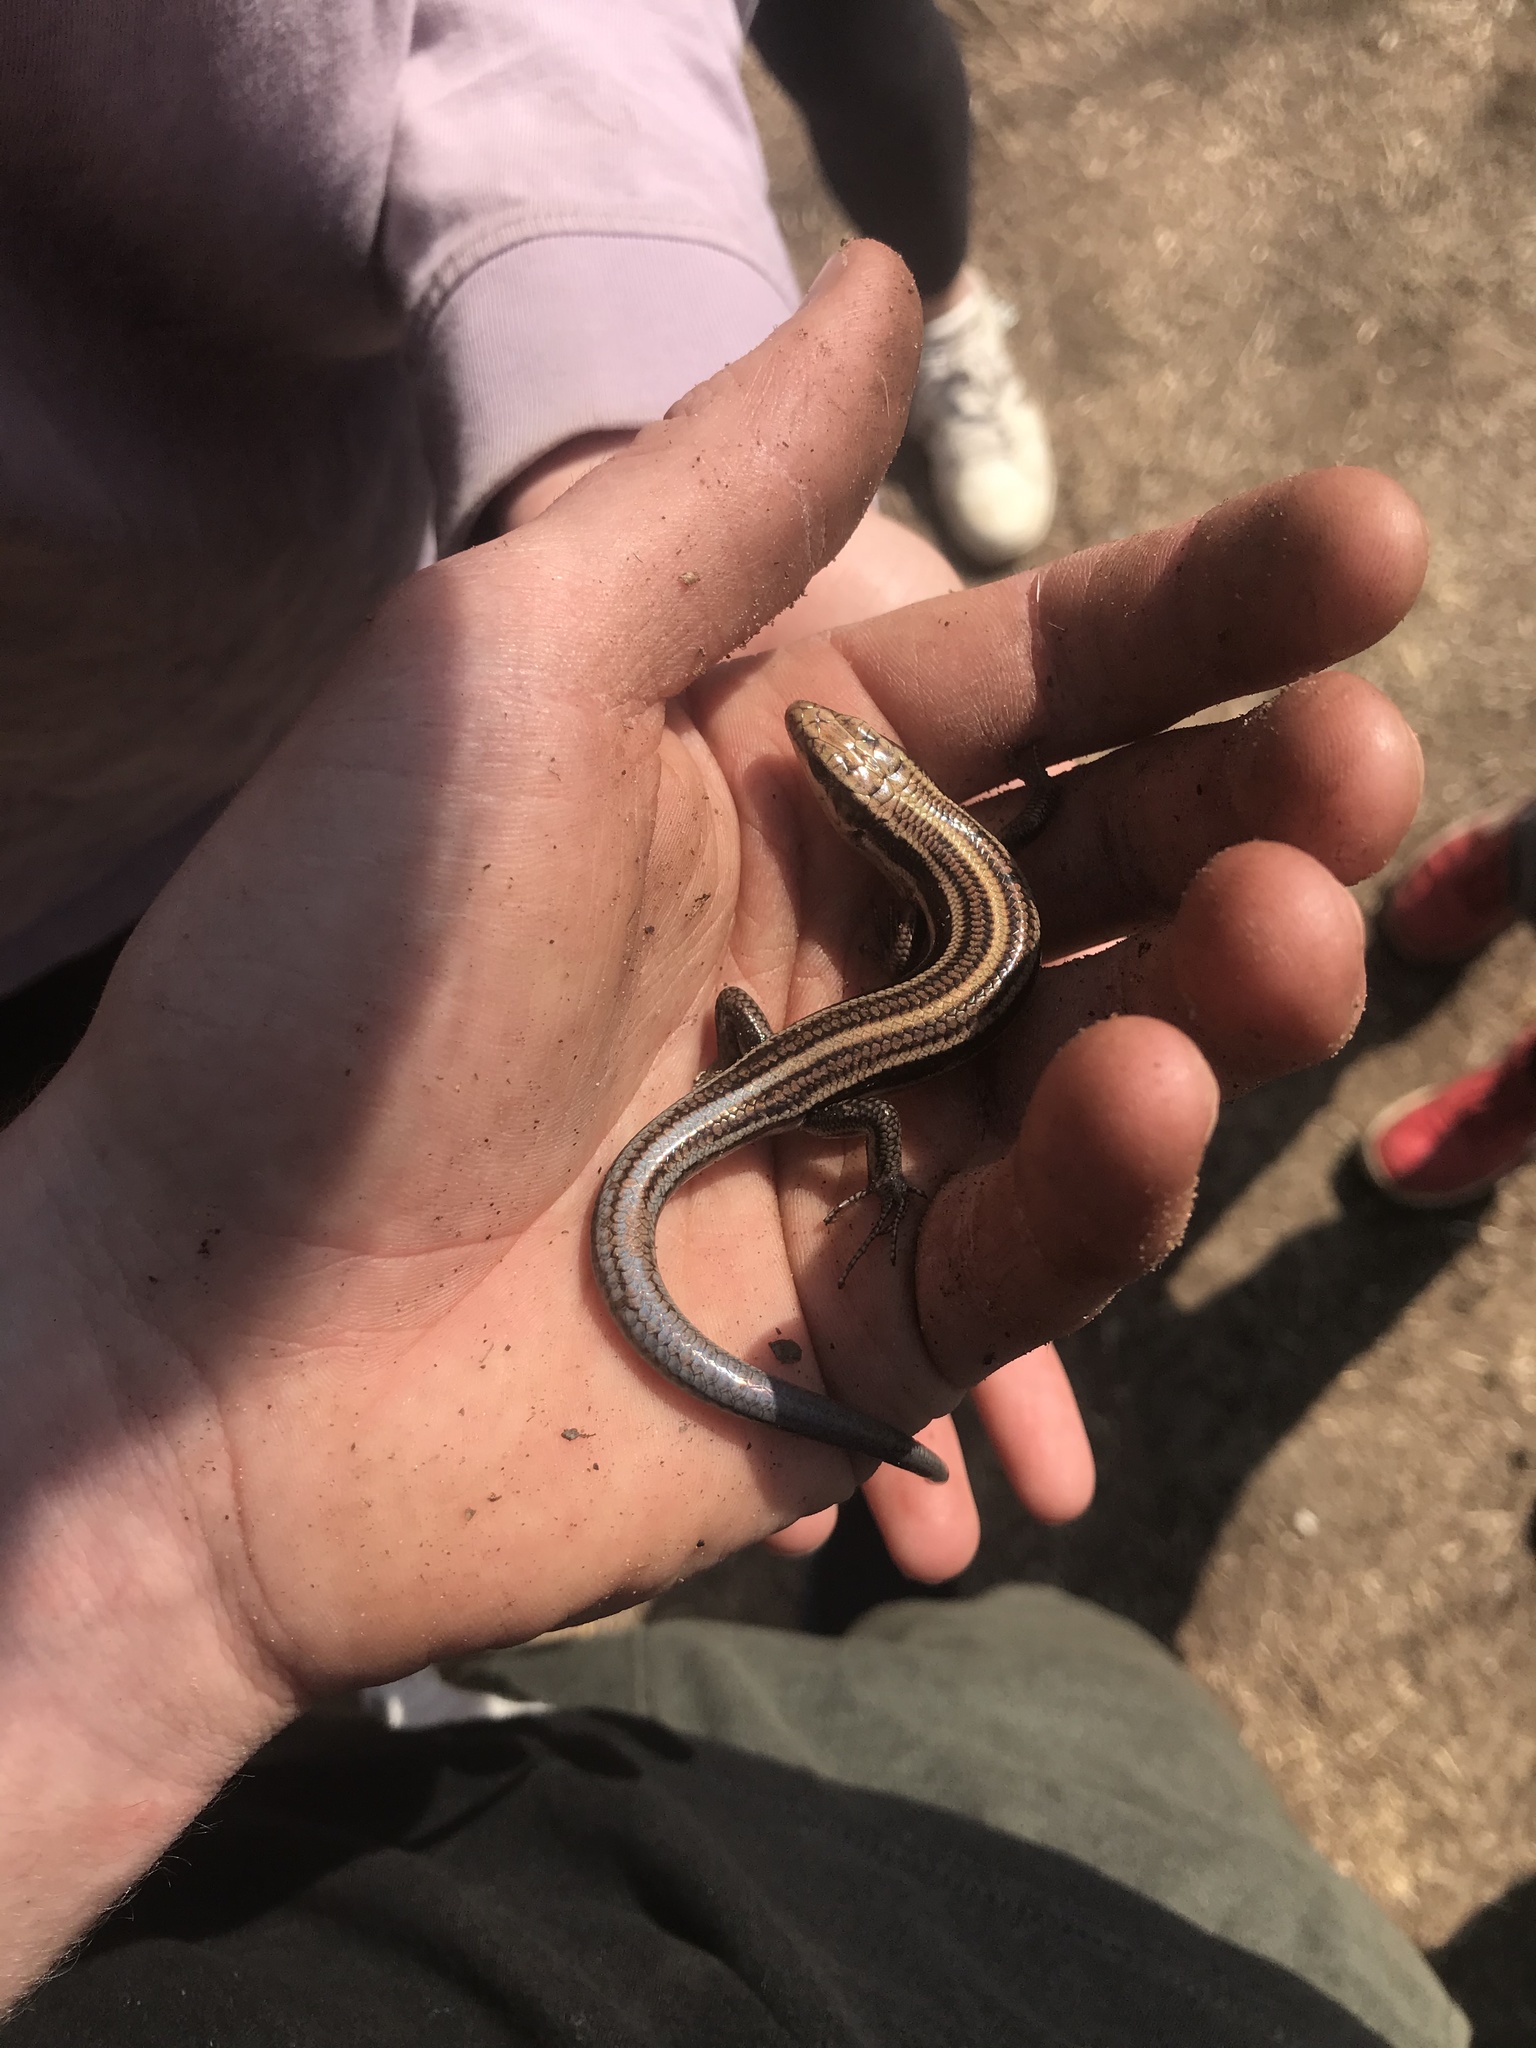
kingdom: Animalia
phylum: Chordata
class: Squamata
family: Scincidae
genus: Plestiodon
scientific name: Plestiodon fasciatus
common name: Five-lined skink
